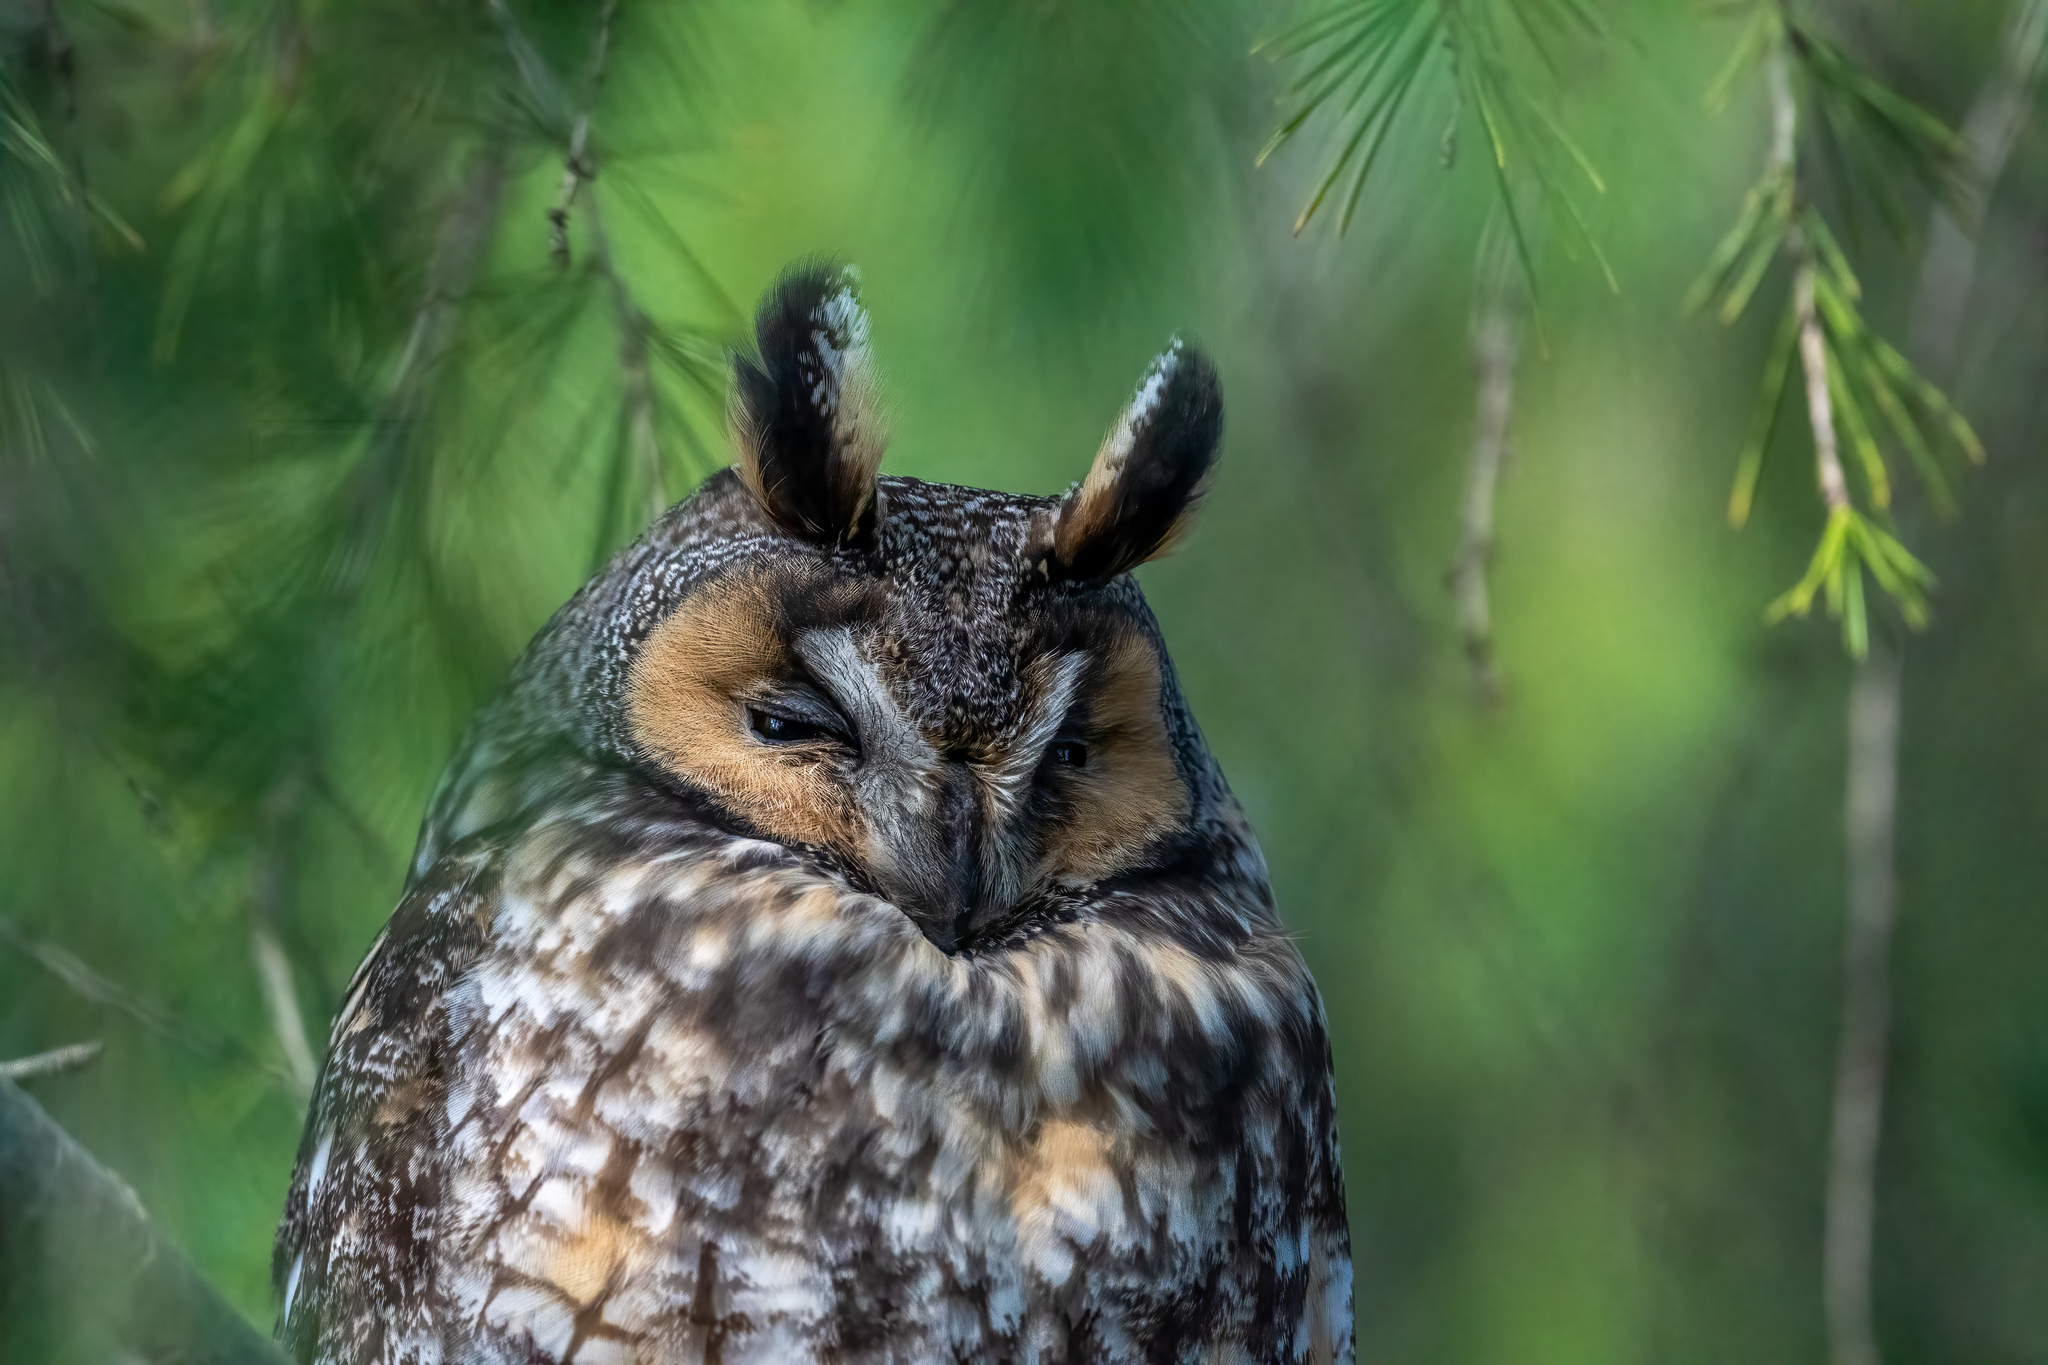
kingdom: Animalia
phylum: Chordata
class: Aves
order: Strigiformes
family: Strigidae
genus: Asio
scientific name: Asio otus
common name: Long-eared owl
